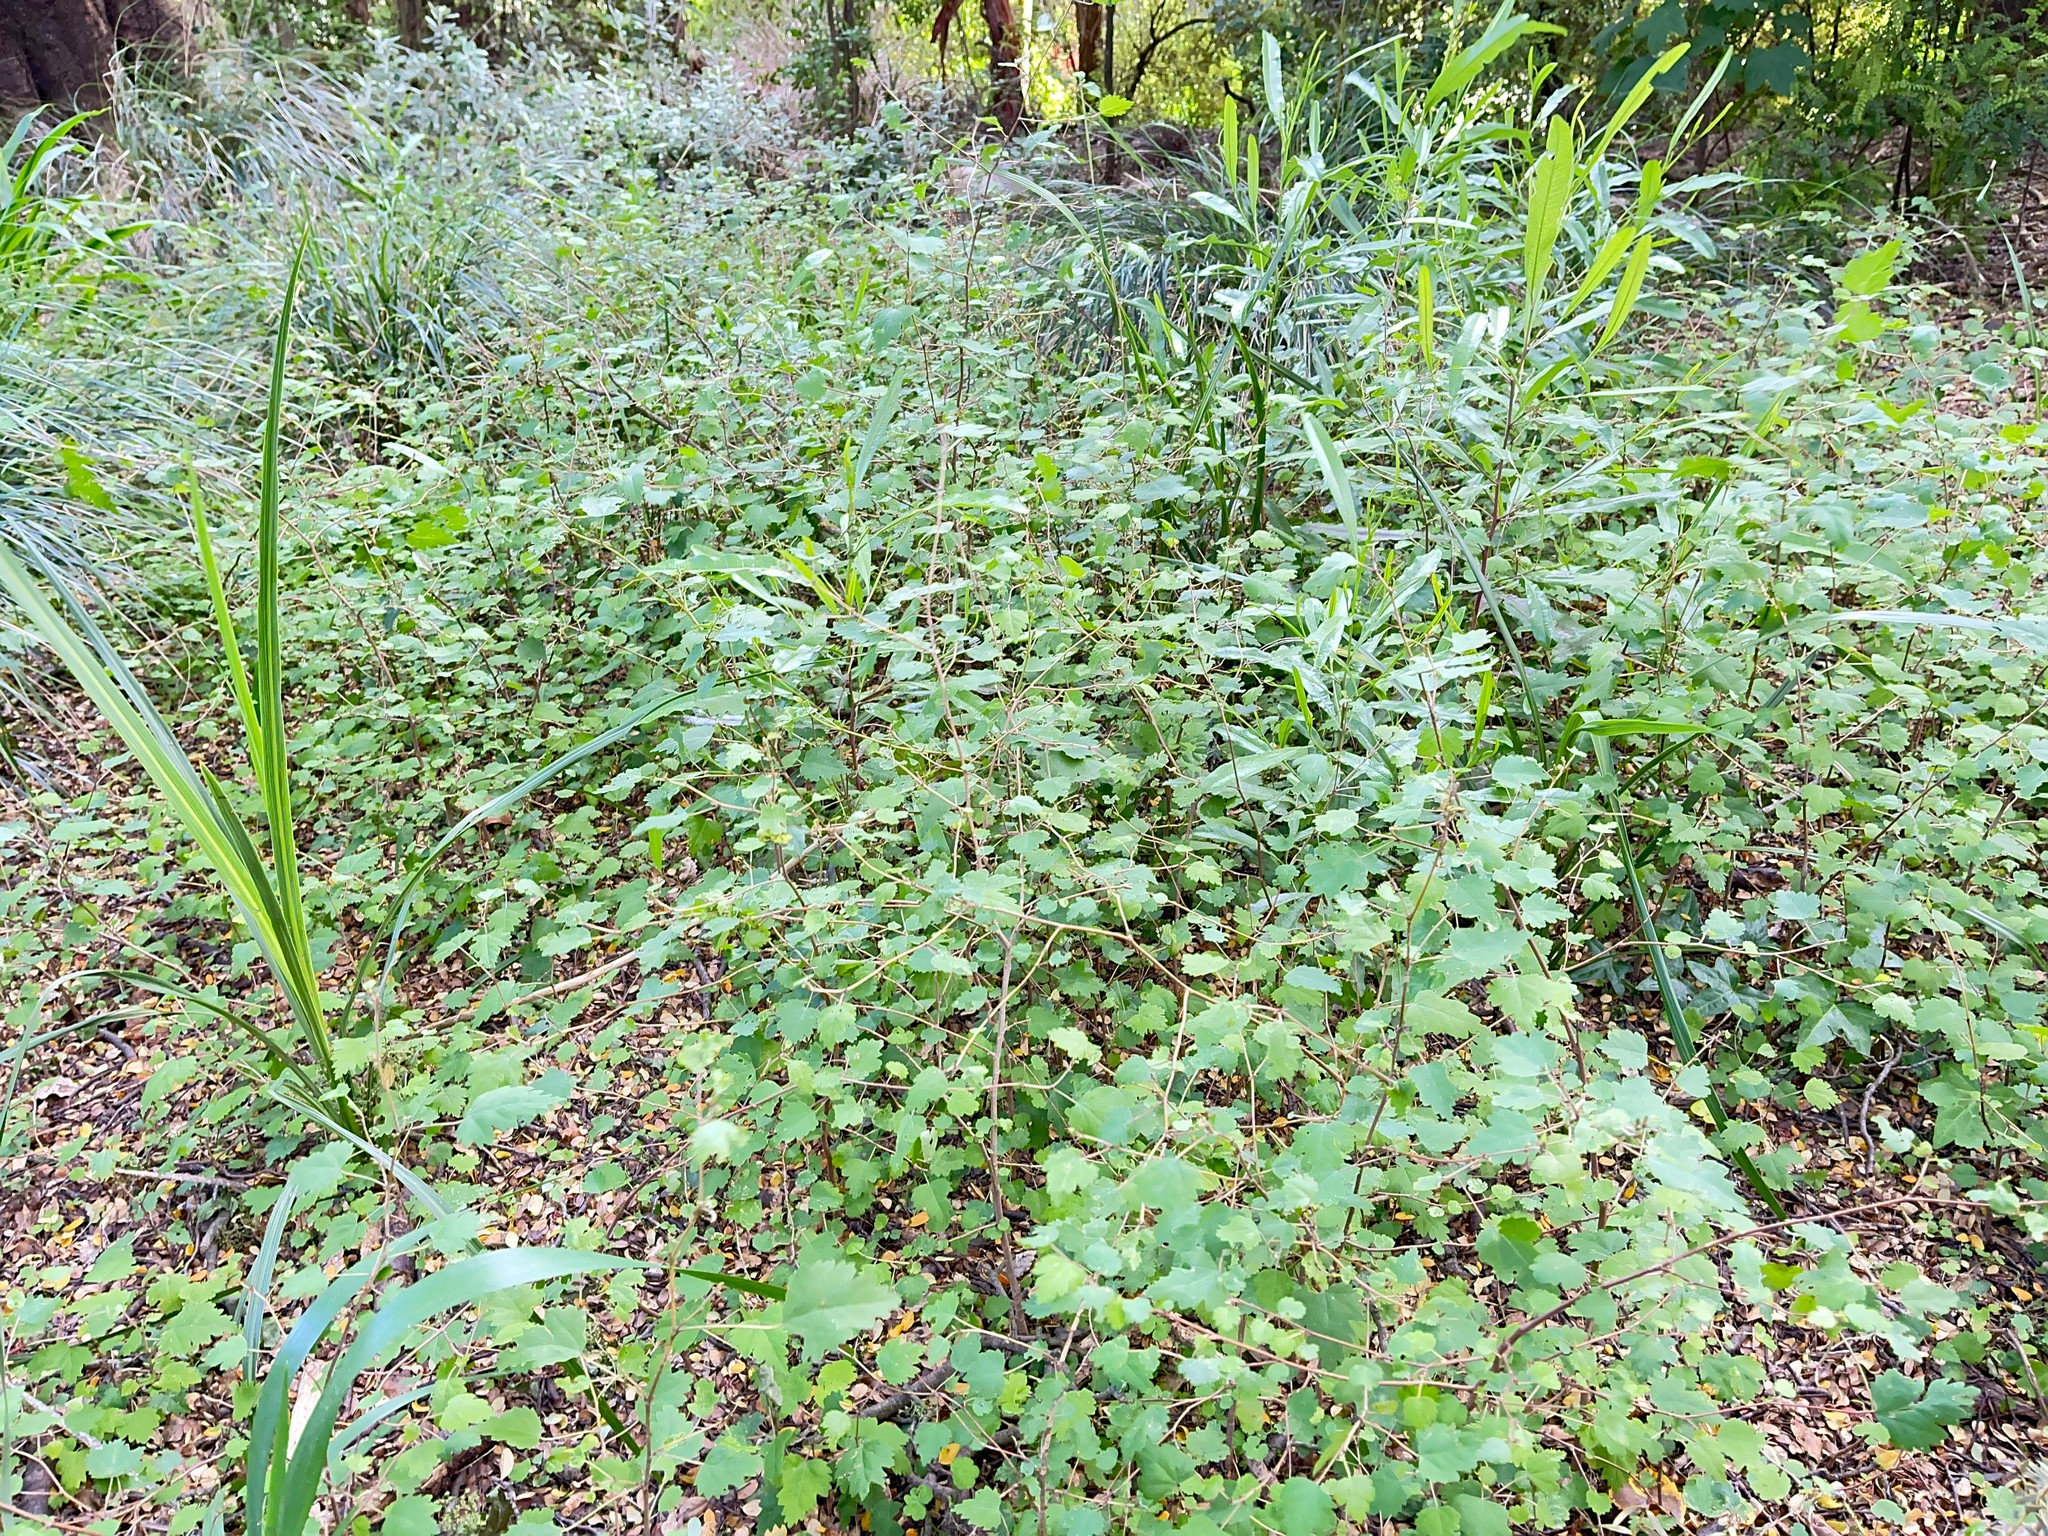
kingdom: Plantae
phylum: Tracheophyta
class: Magnoliopsida
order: Malvales
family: Malvaceae
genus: Plagianthus
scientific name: Plagianthus regius
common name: Manatu
